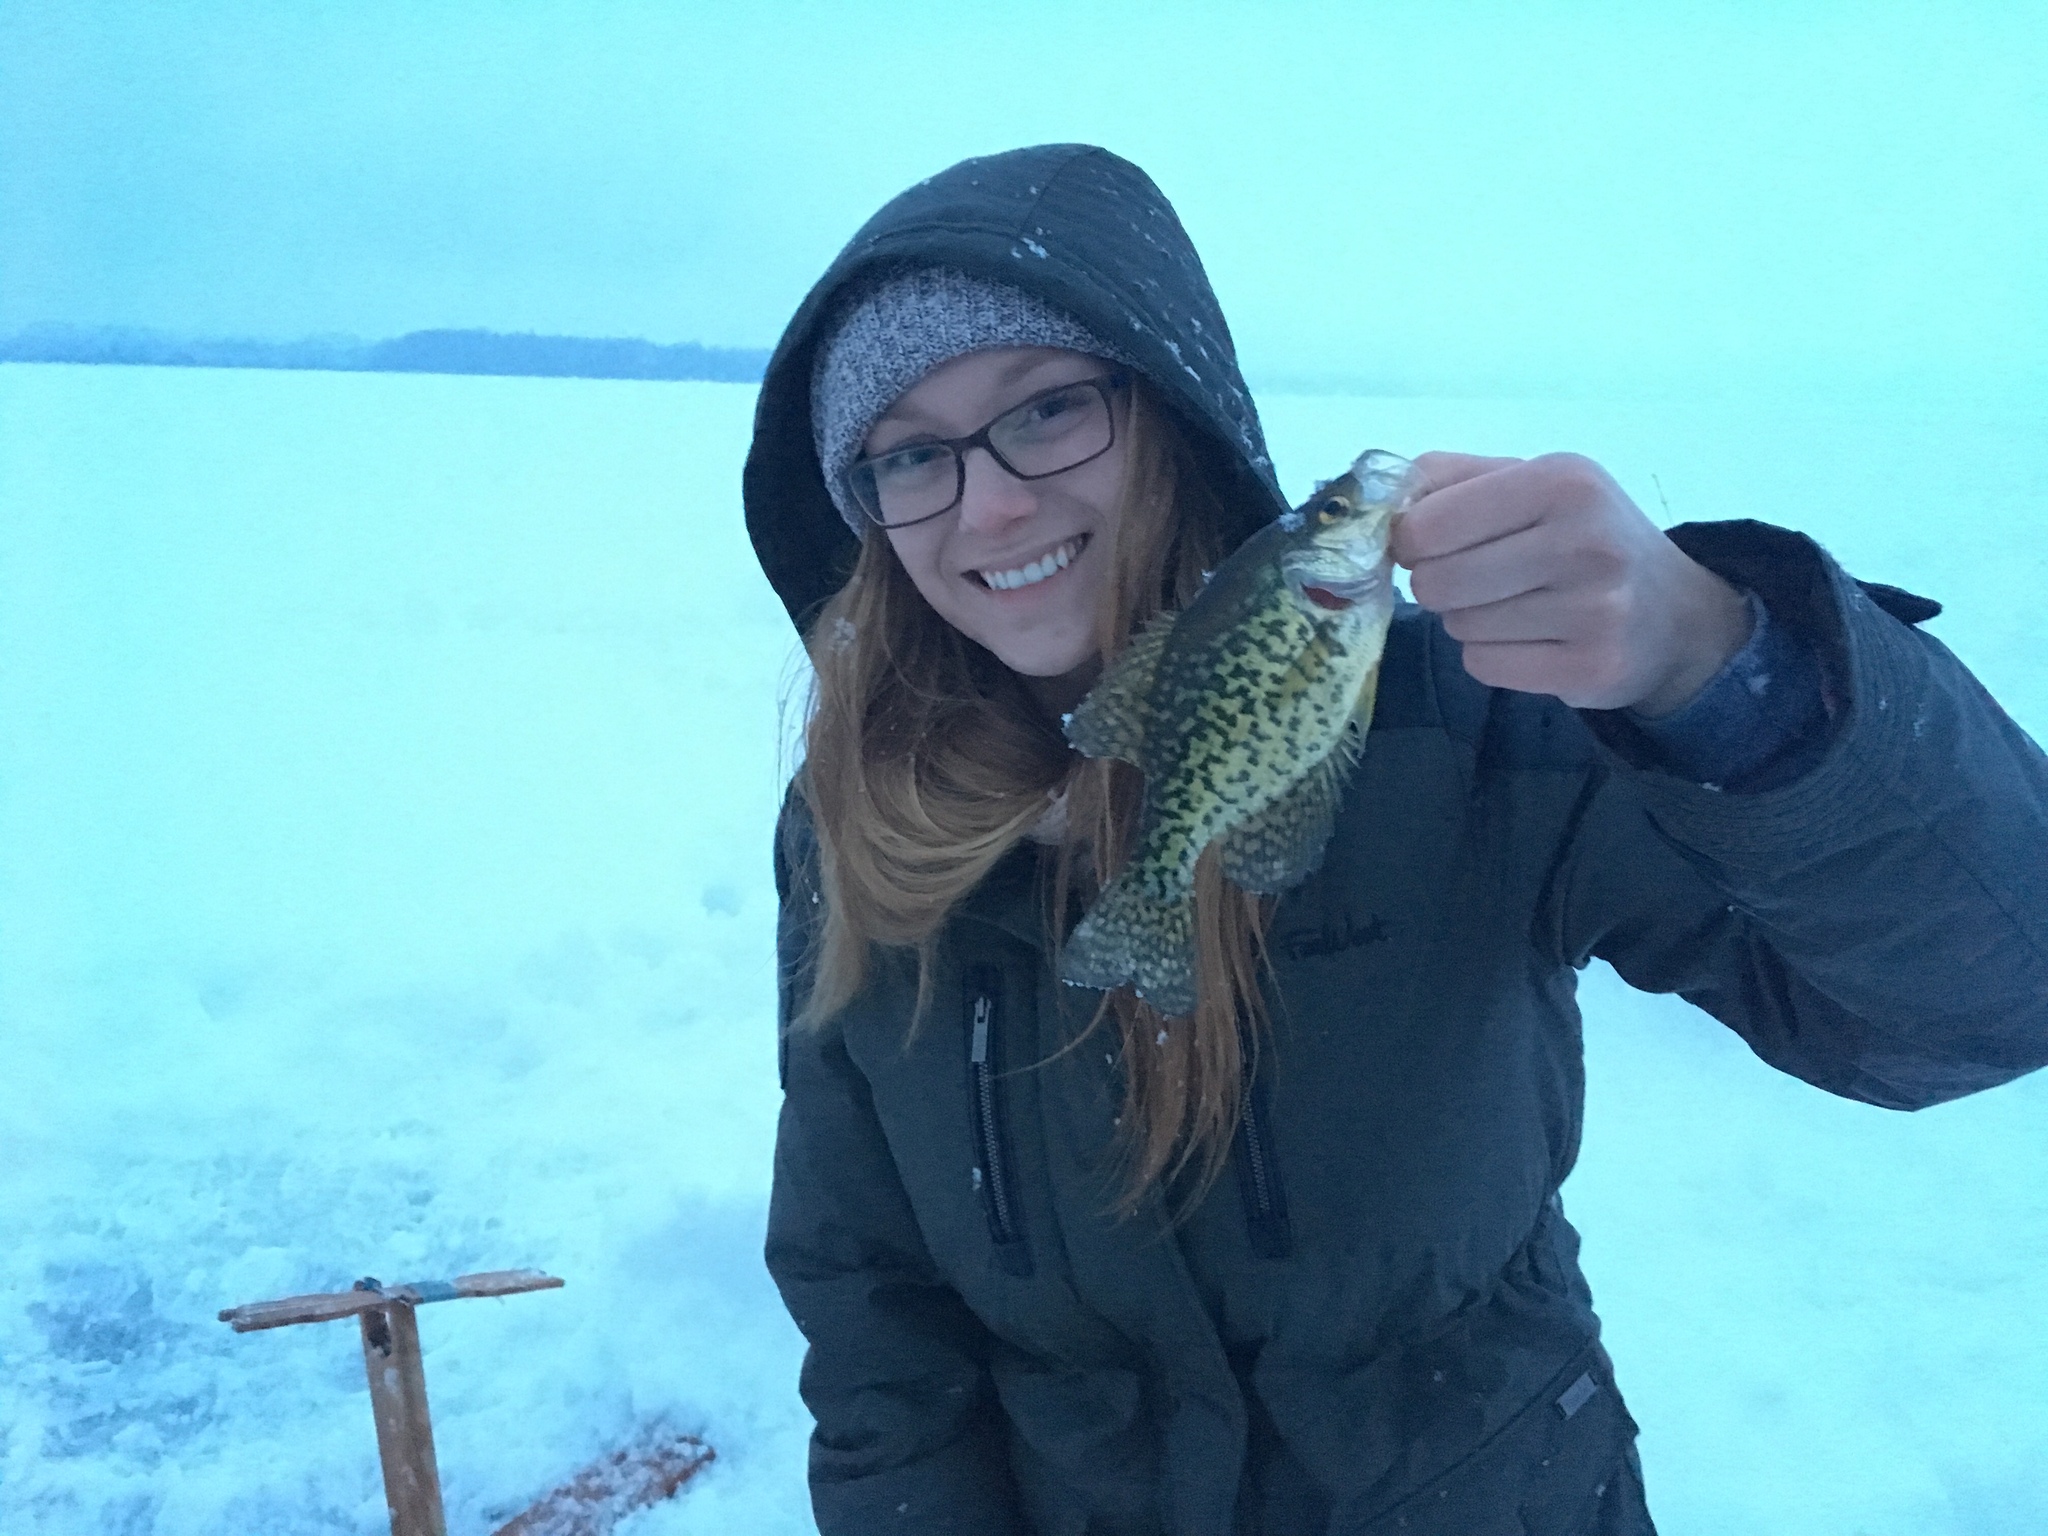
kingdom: Animalia
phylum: Chordata
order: Perciformes
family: Centrarchidae
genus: Pomoxis
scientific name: Pomoxis nigromaculatus
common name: Black crappie
